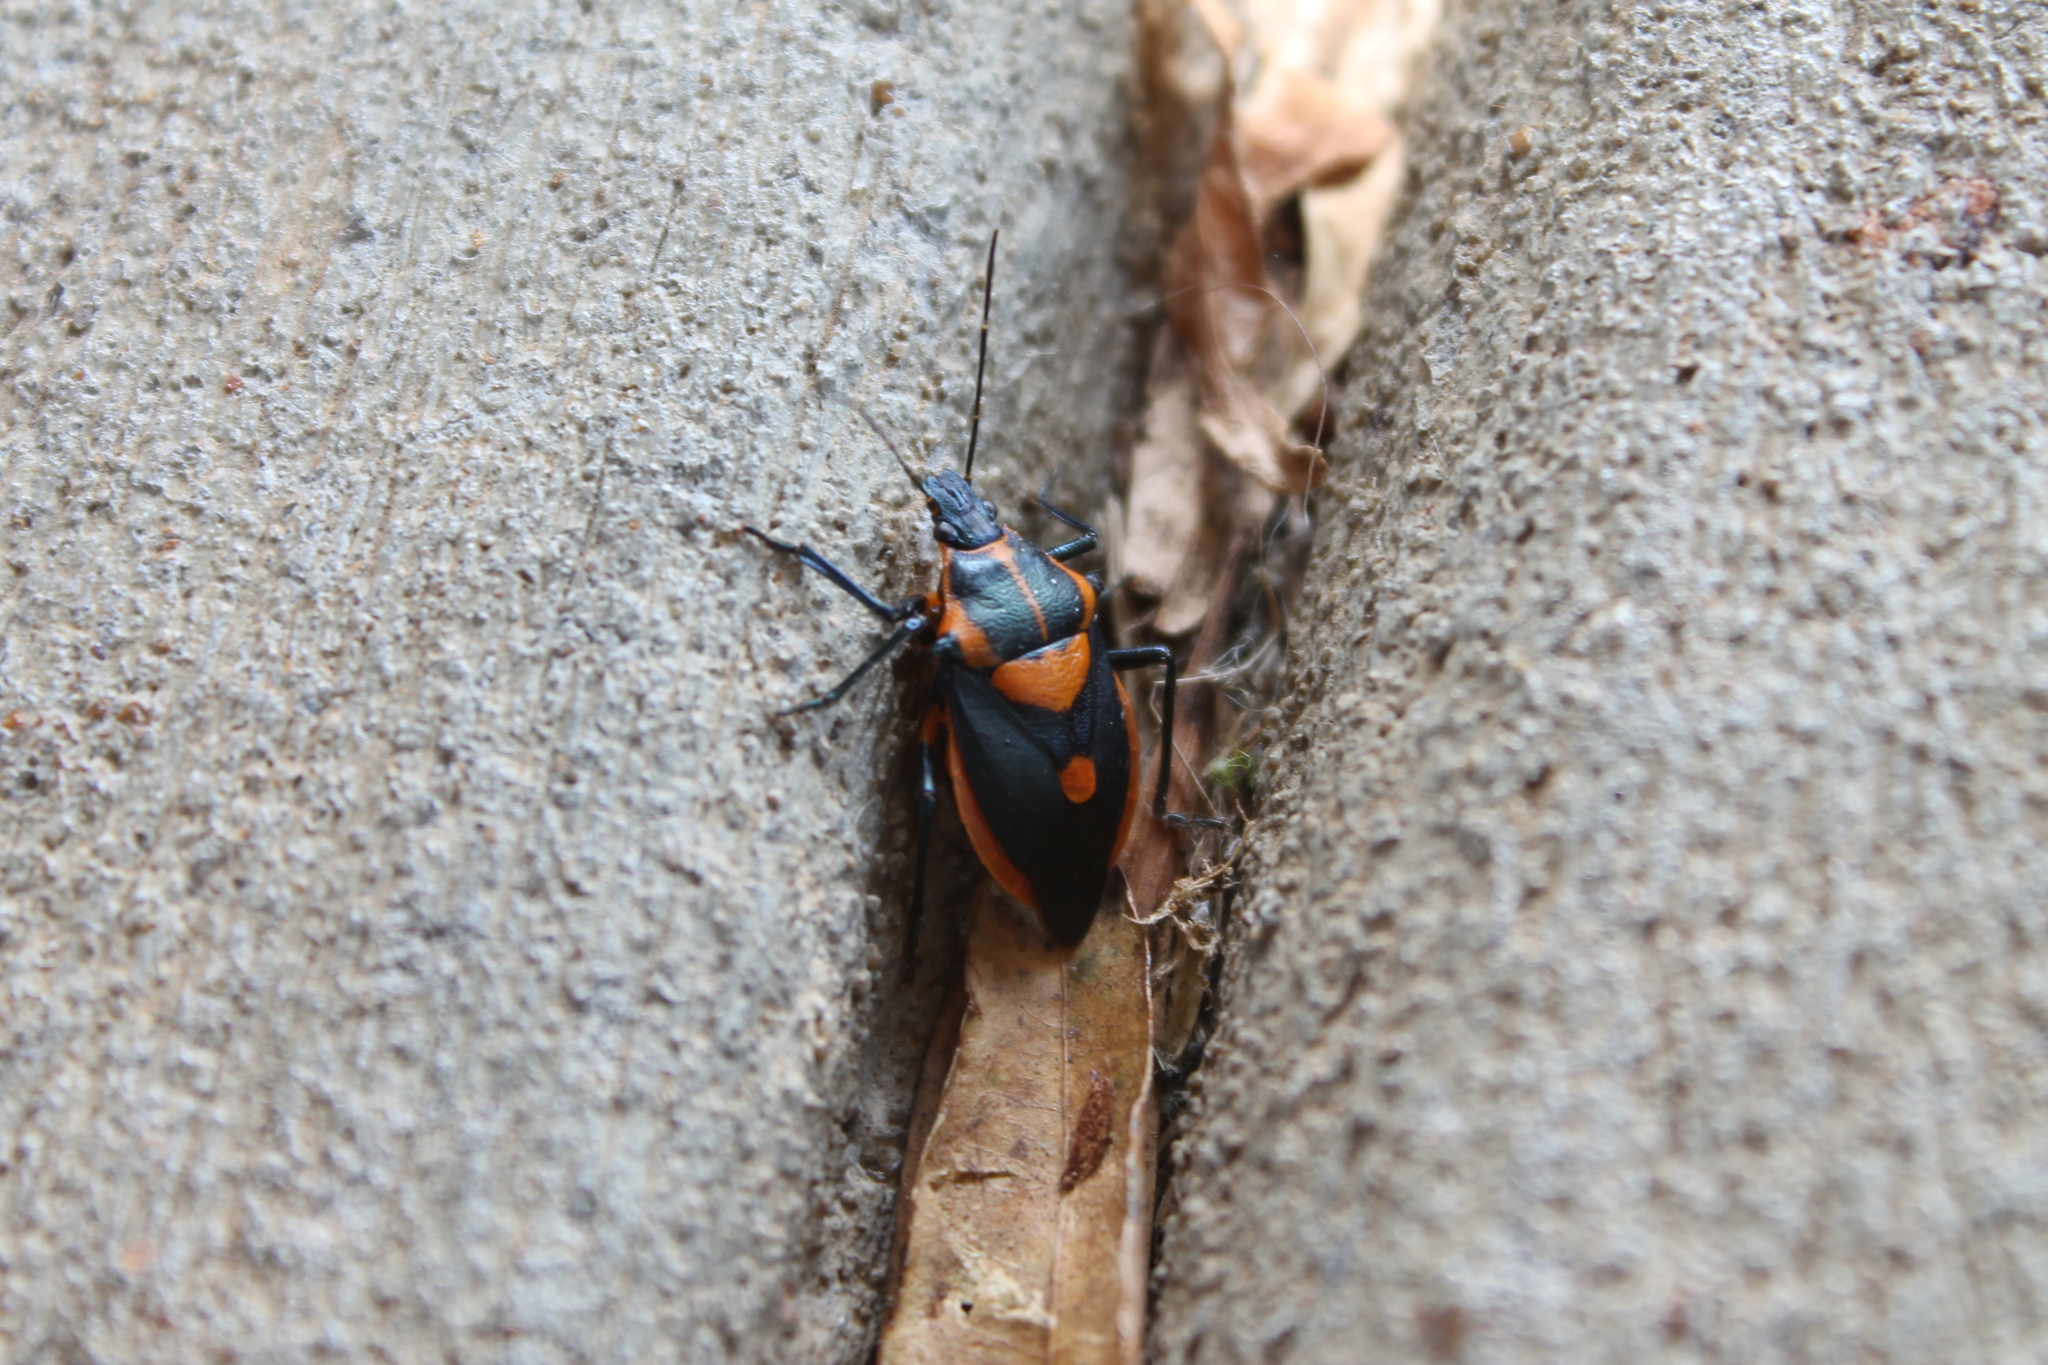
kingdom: Animalia
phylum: Arthropoda
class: Insecta
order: Hemiptera
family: Pentatomidae
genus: Euthyrhynchus
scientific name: Euthyrhynchus floridanus
